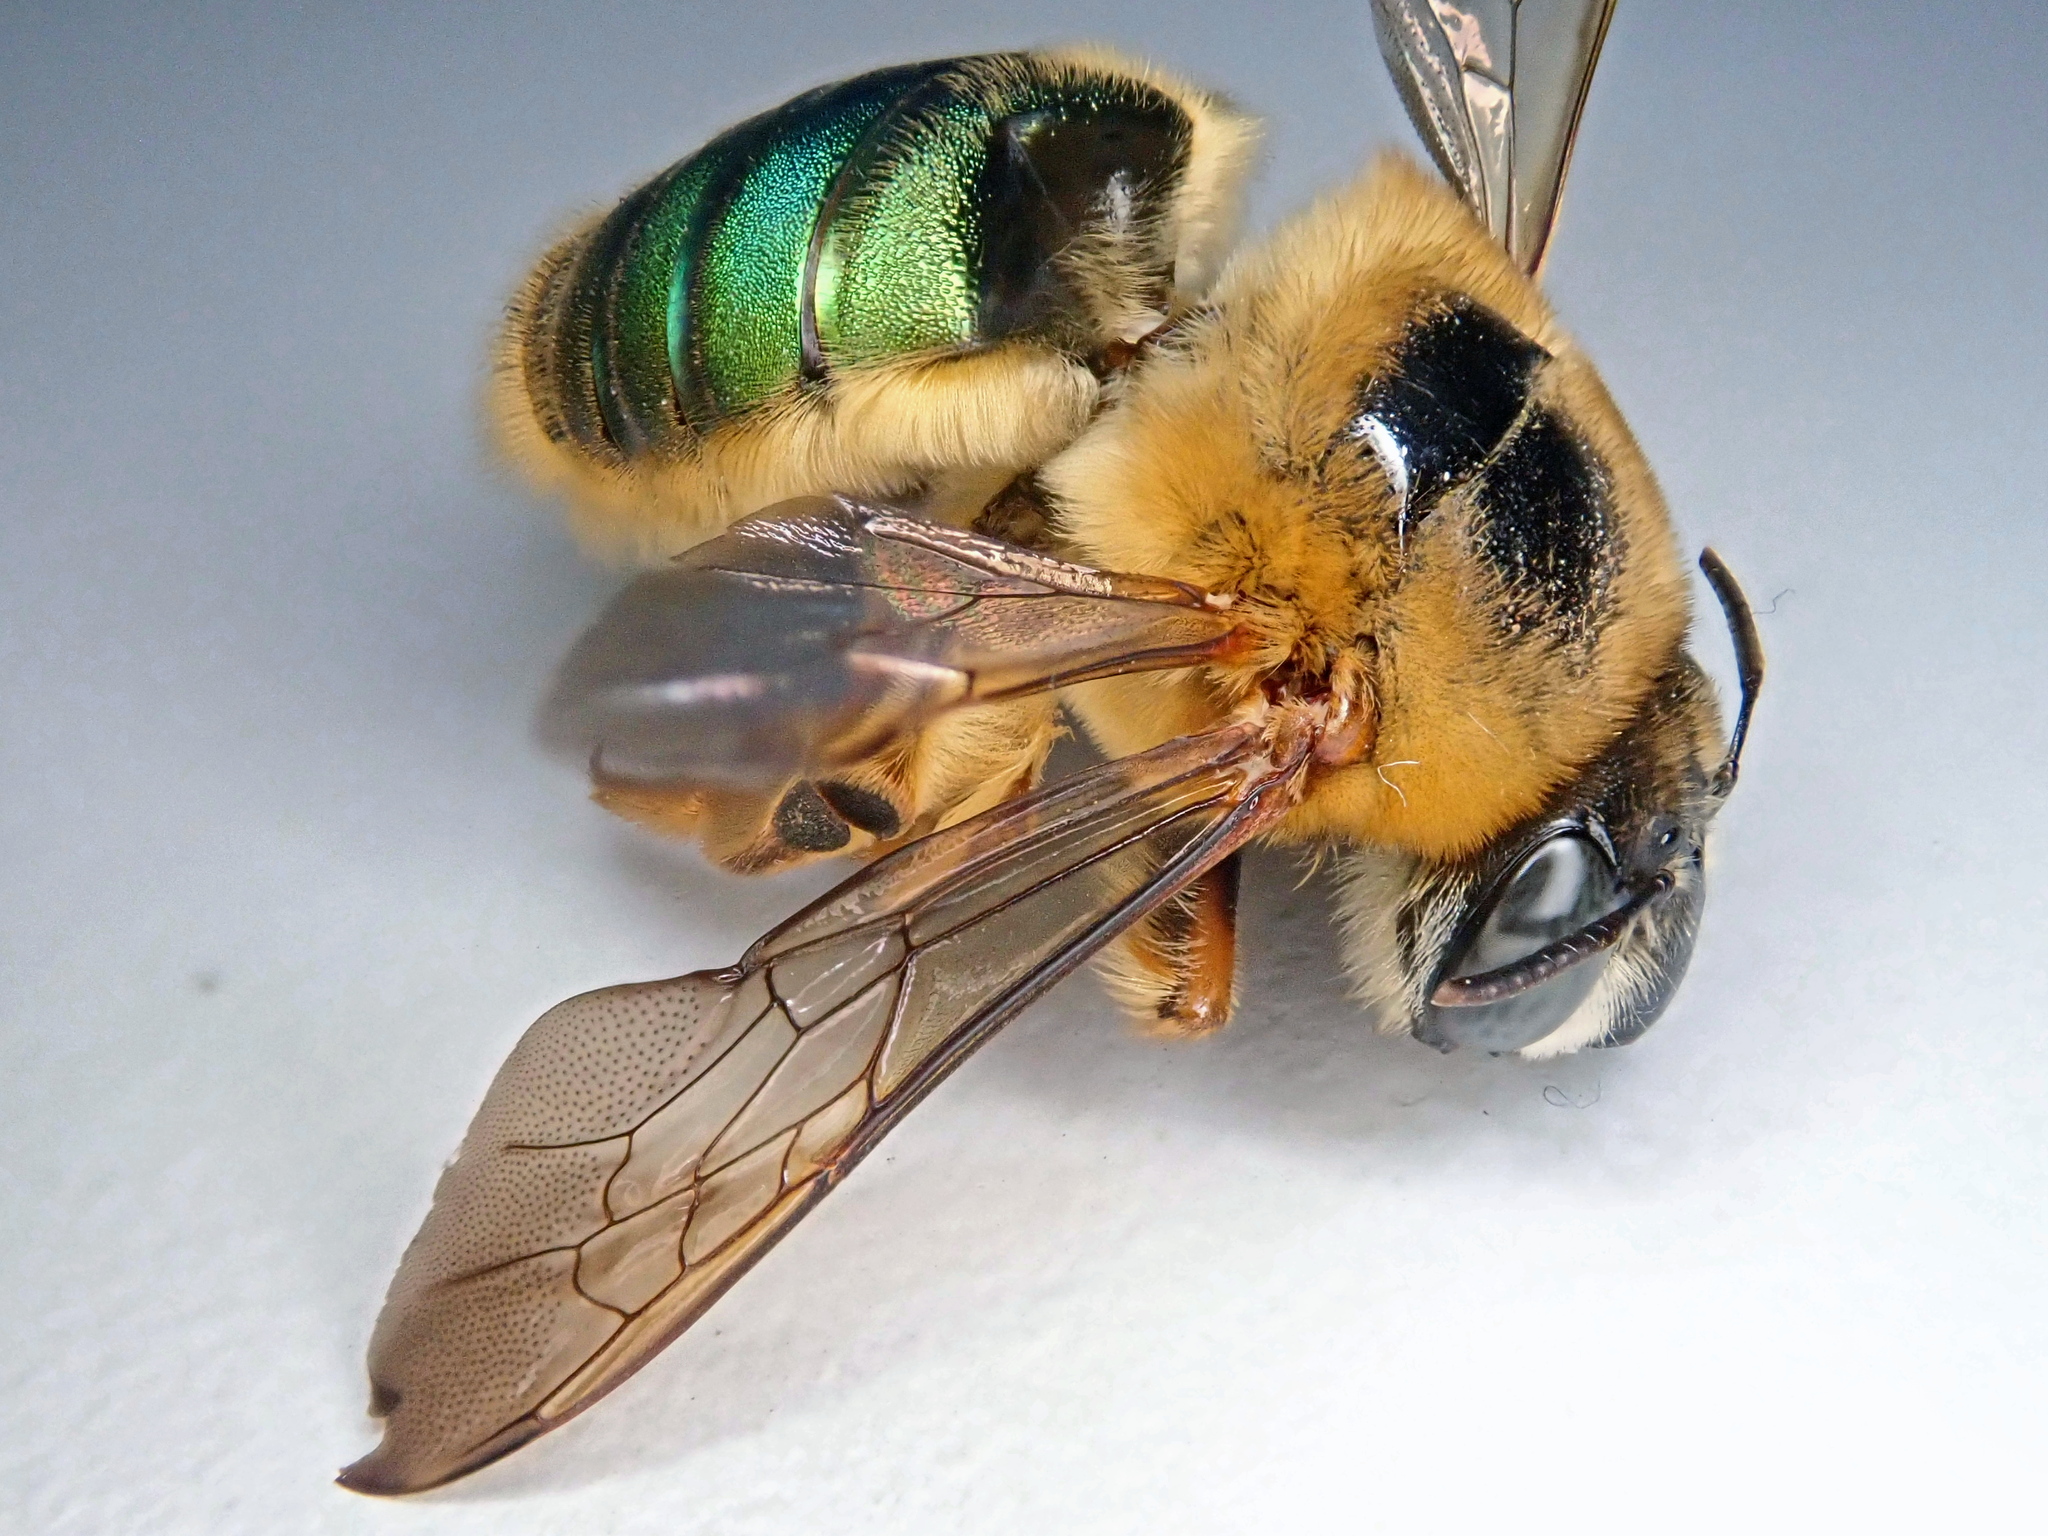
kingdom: Animalia
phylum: Arthropoda
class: Insecta
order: Hymenoptera
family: Andrenidae
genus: Oxaea
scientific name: Oxaea flavescens
